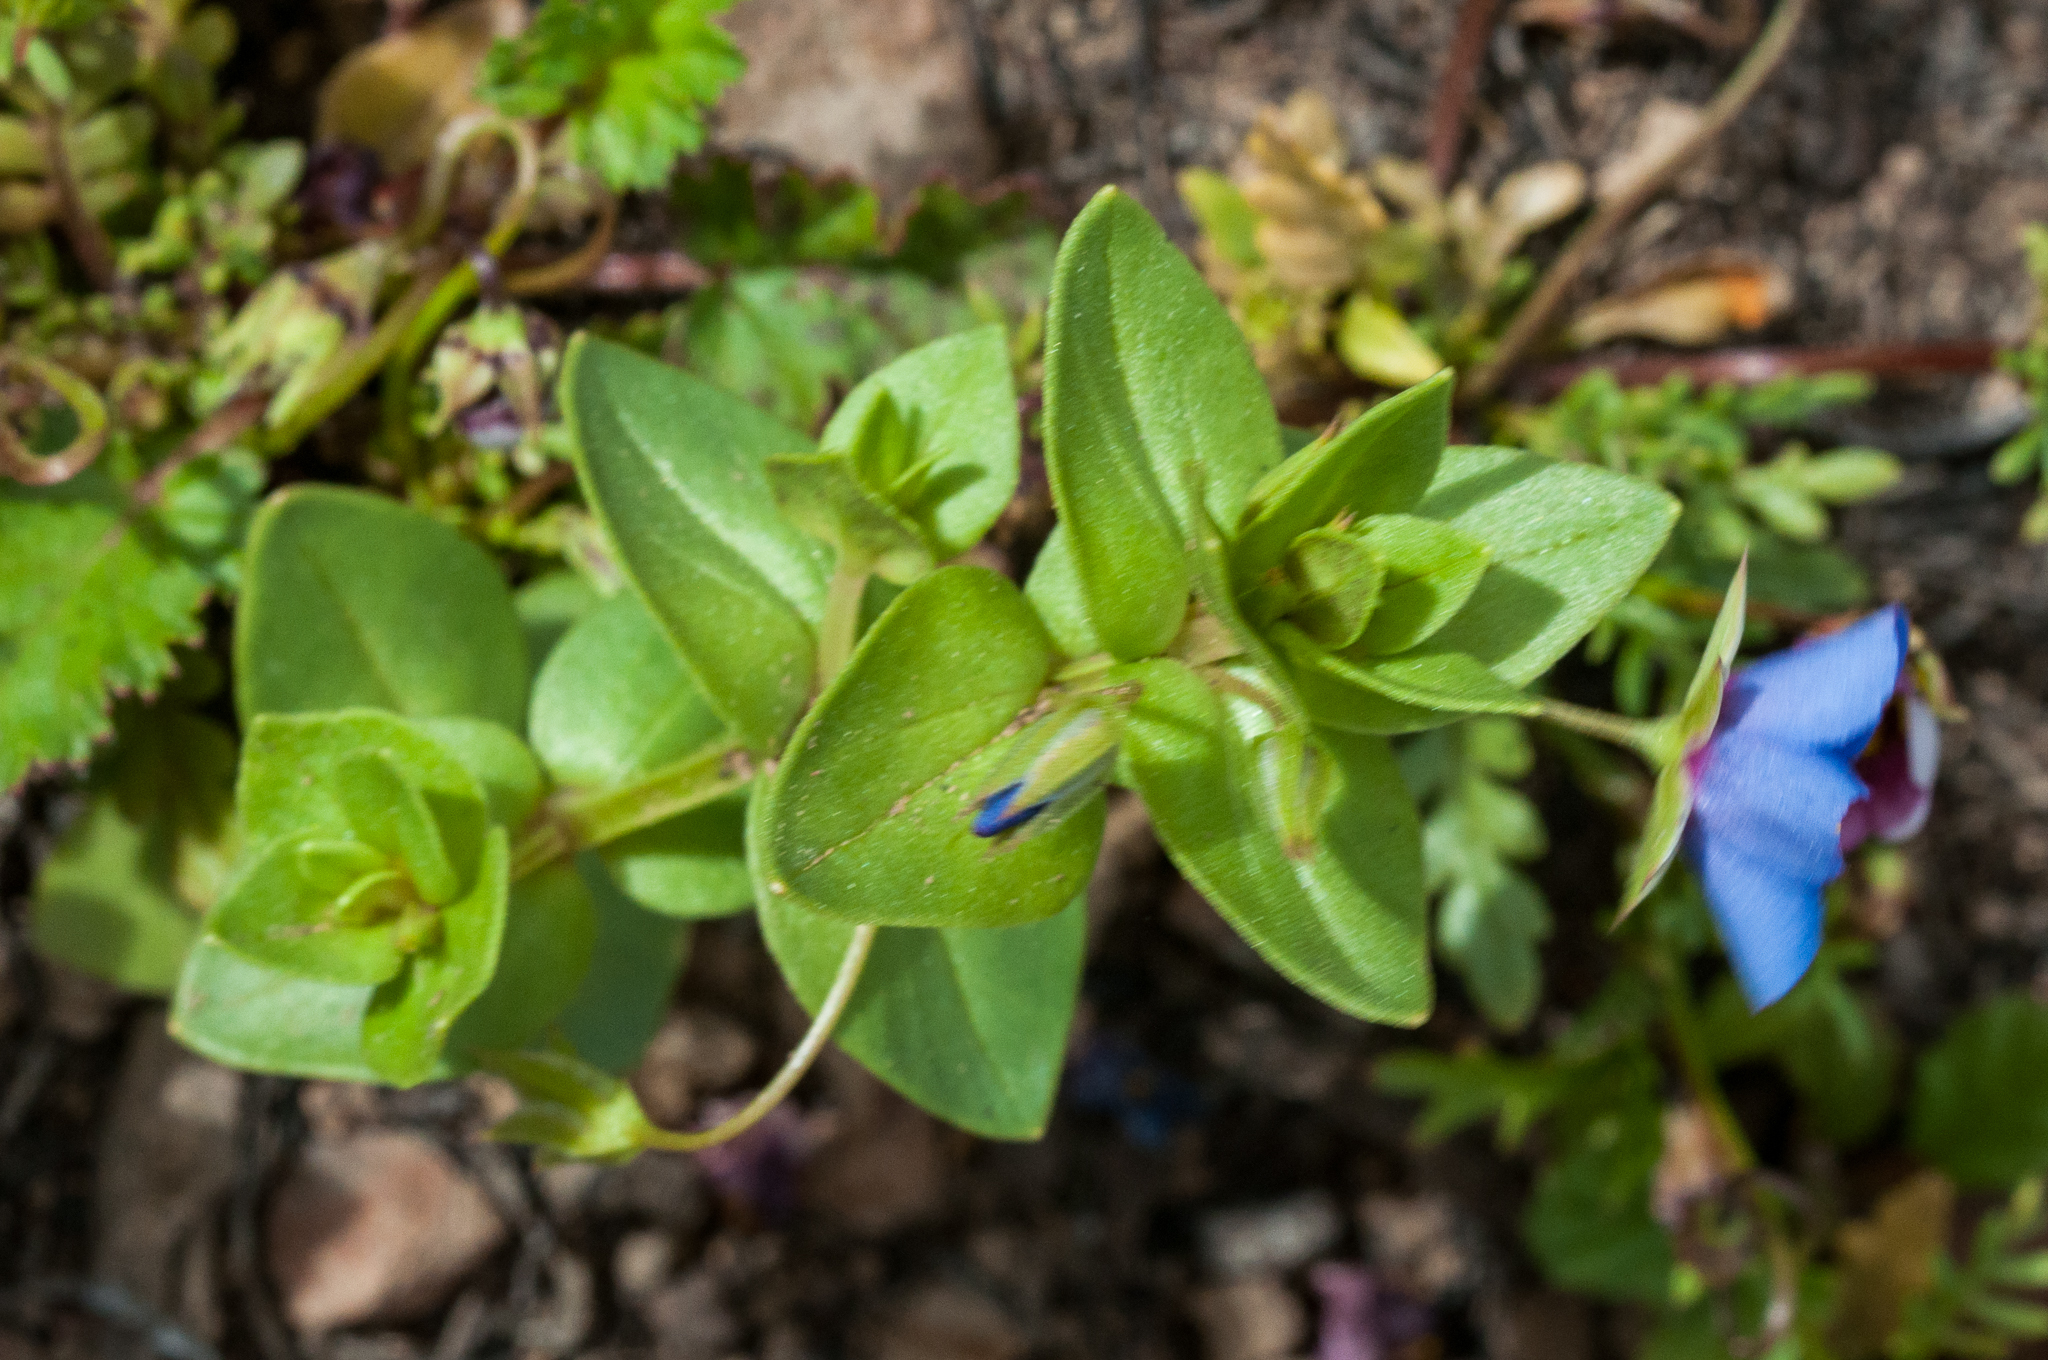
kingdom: Plantae
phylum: Tracheophyta
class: Magnoliopsida
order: Ericales
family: Primulaceae
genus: Lysimachia
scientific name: Lysimachia loeflingii
